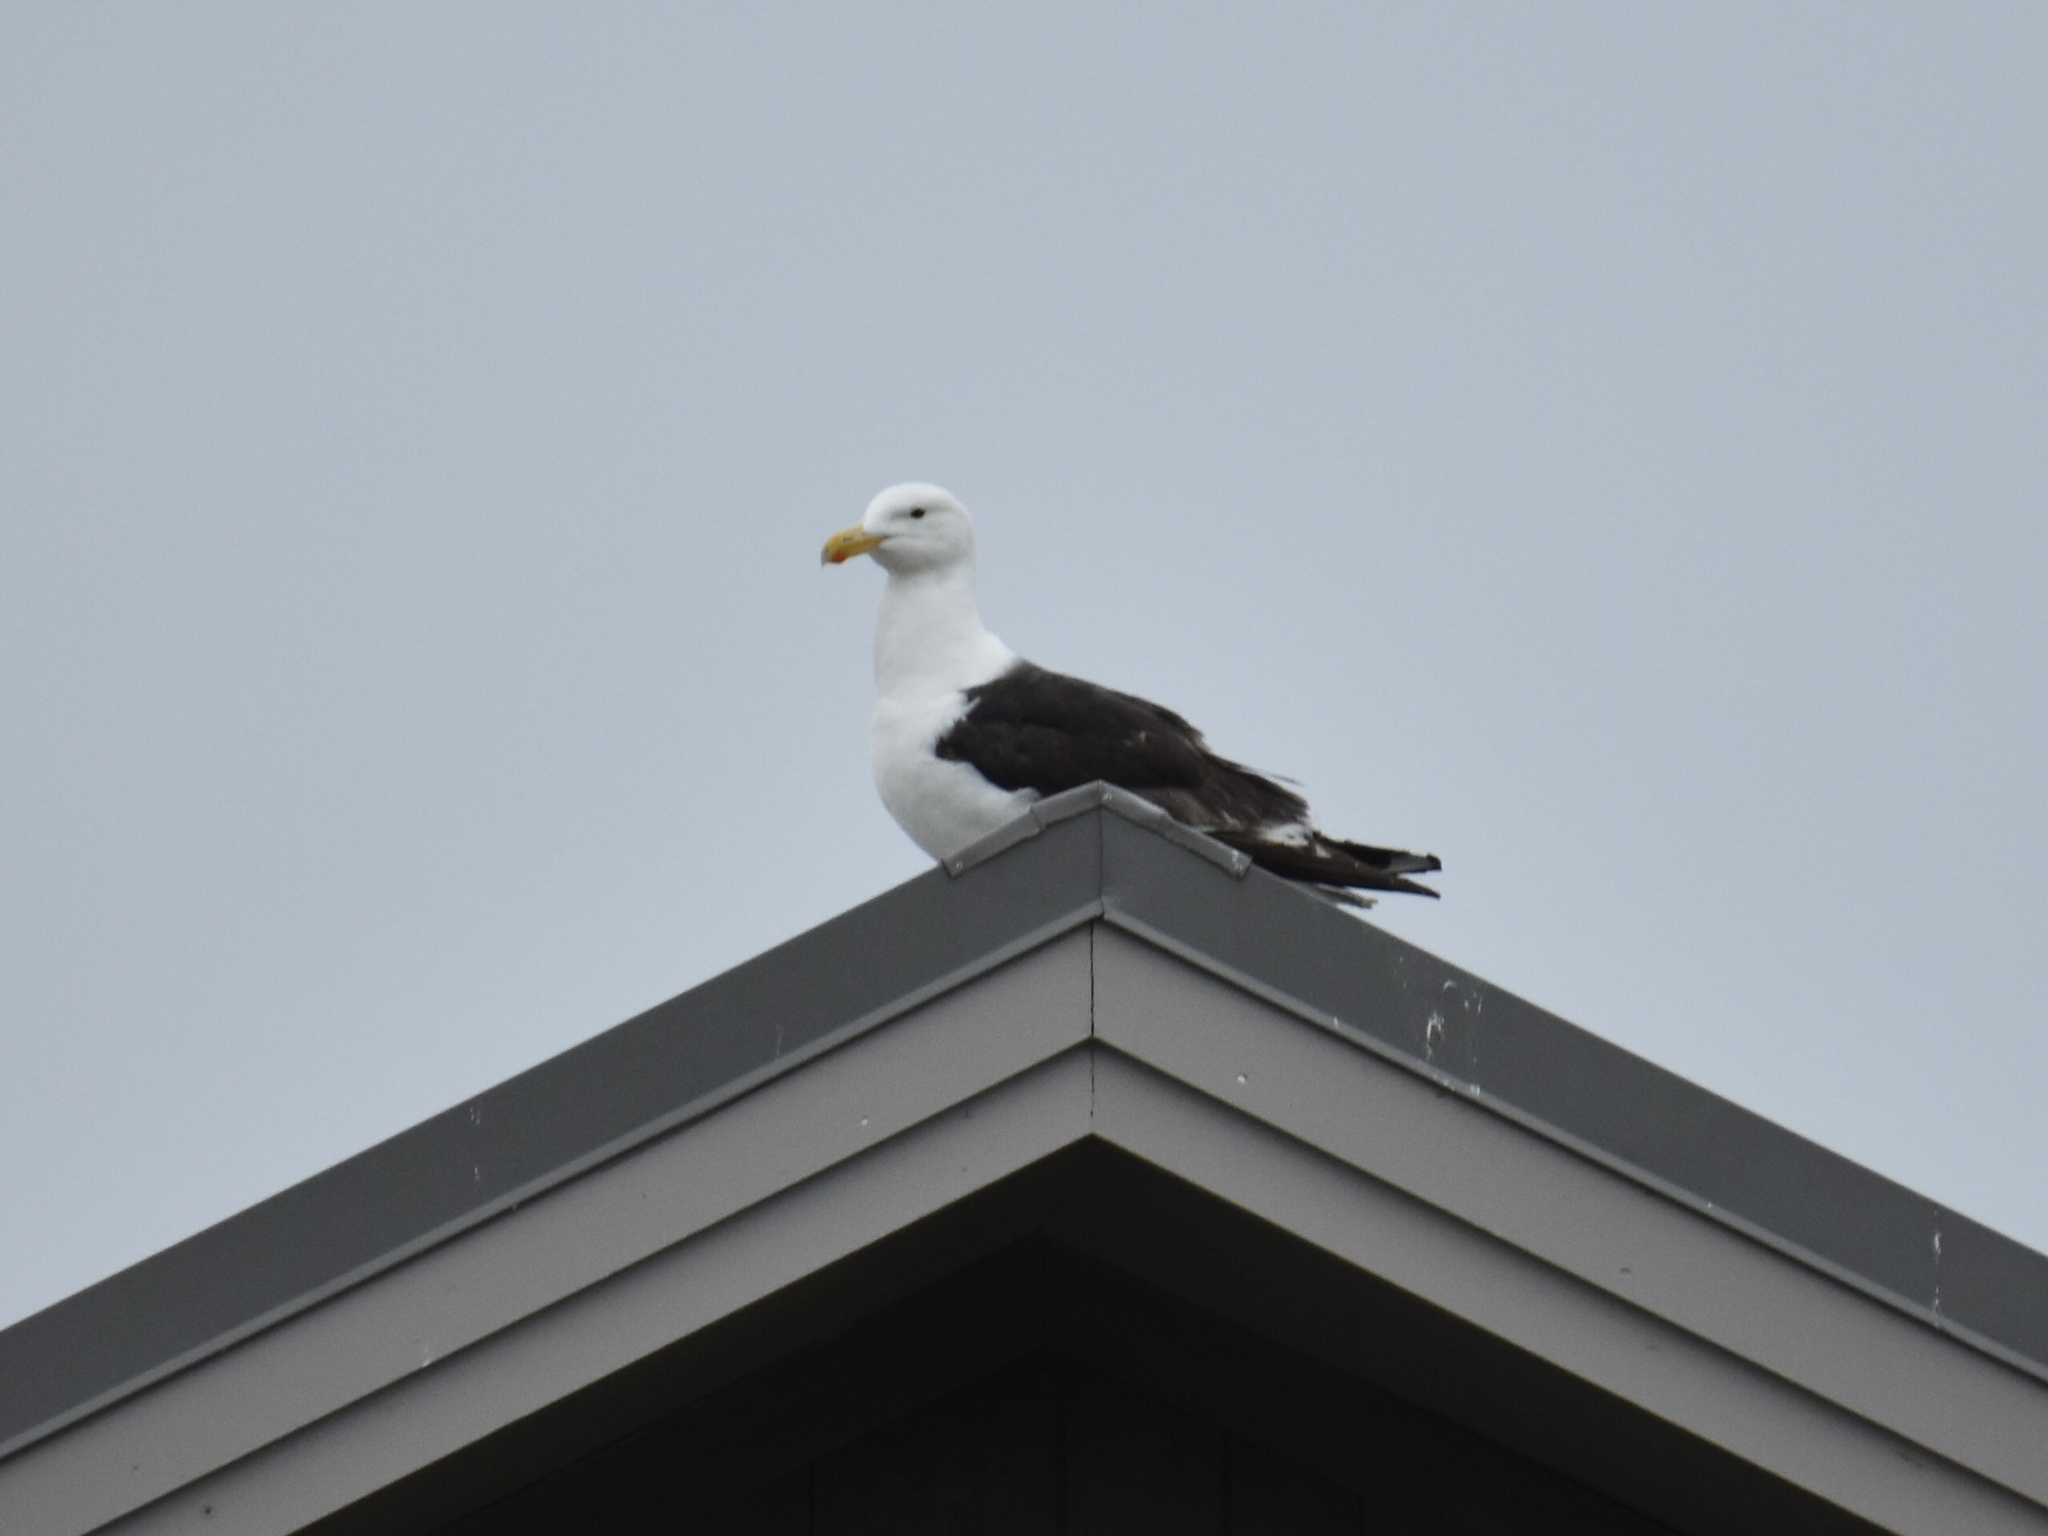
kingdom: Animalia
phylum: Chordata
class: Aves
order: Charadriiformes
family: Laridae
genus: Larus
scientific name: Larus marinus
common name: Great black-backed gull
